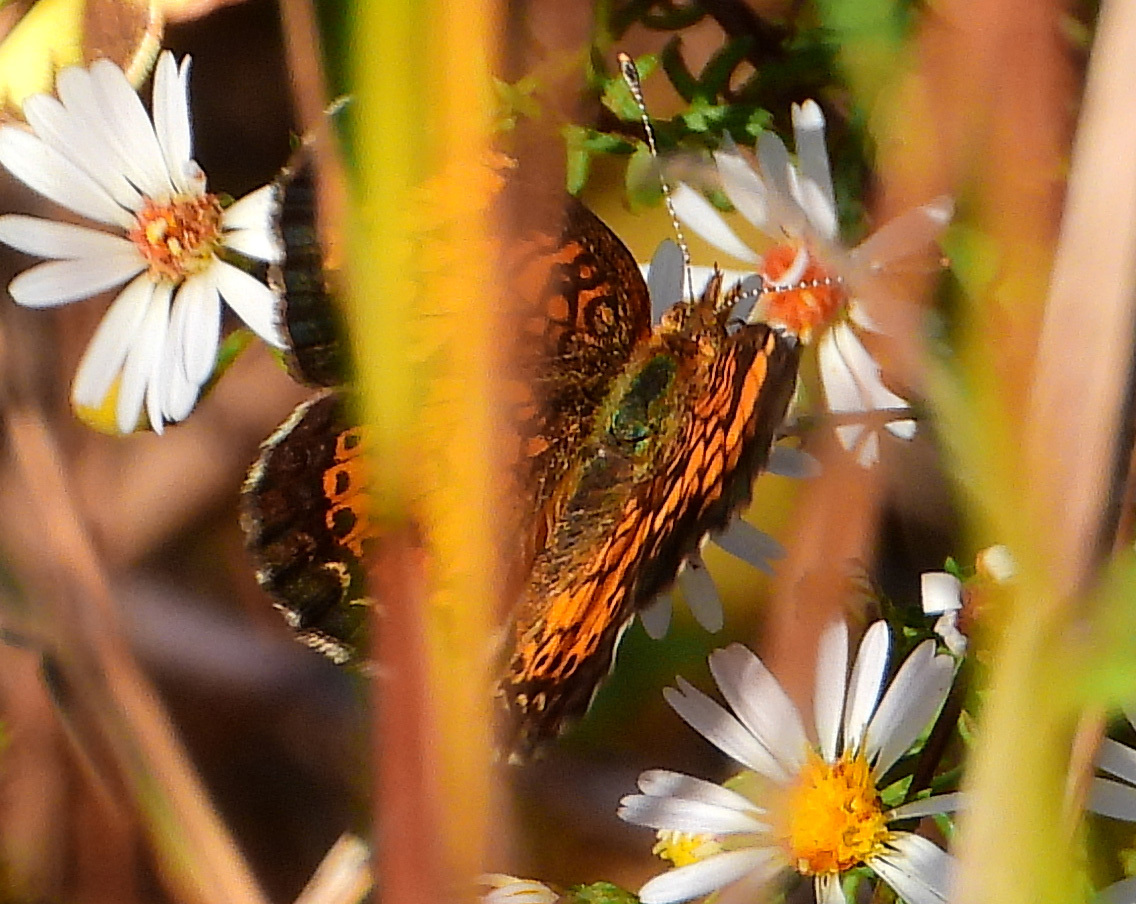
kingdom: Animalia
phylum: Arthropoda
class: Insecta
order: Lepidoptera
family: Nymphalidae
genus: Phyciodes
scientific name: Phyciodes tharos
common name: Pearl crescent
